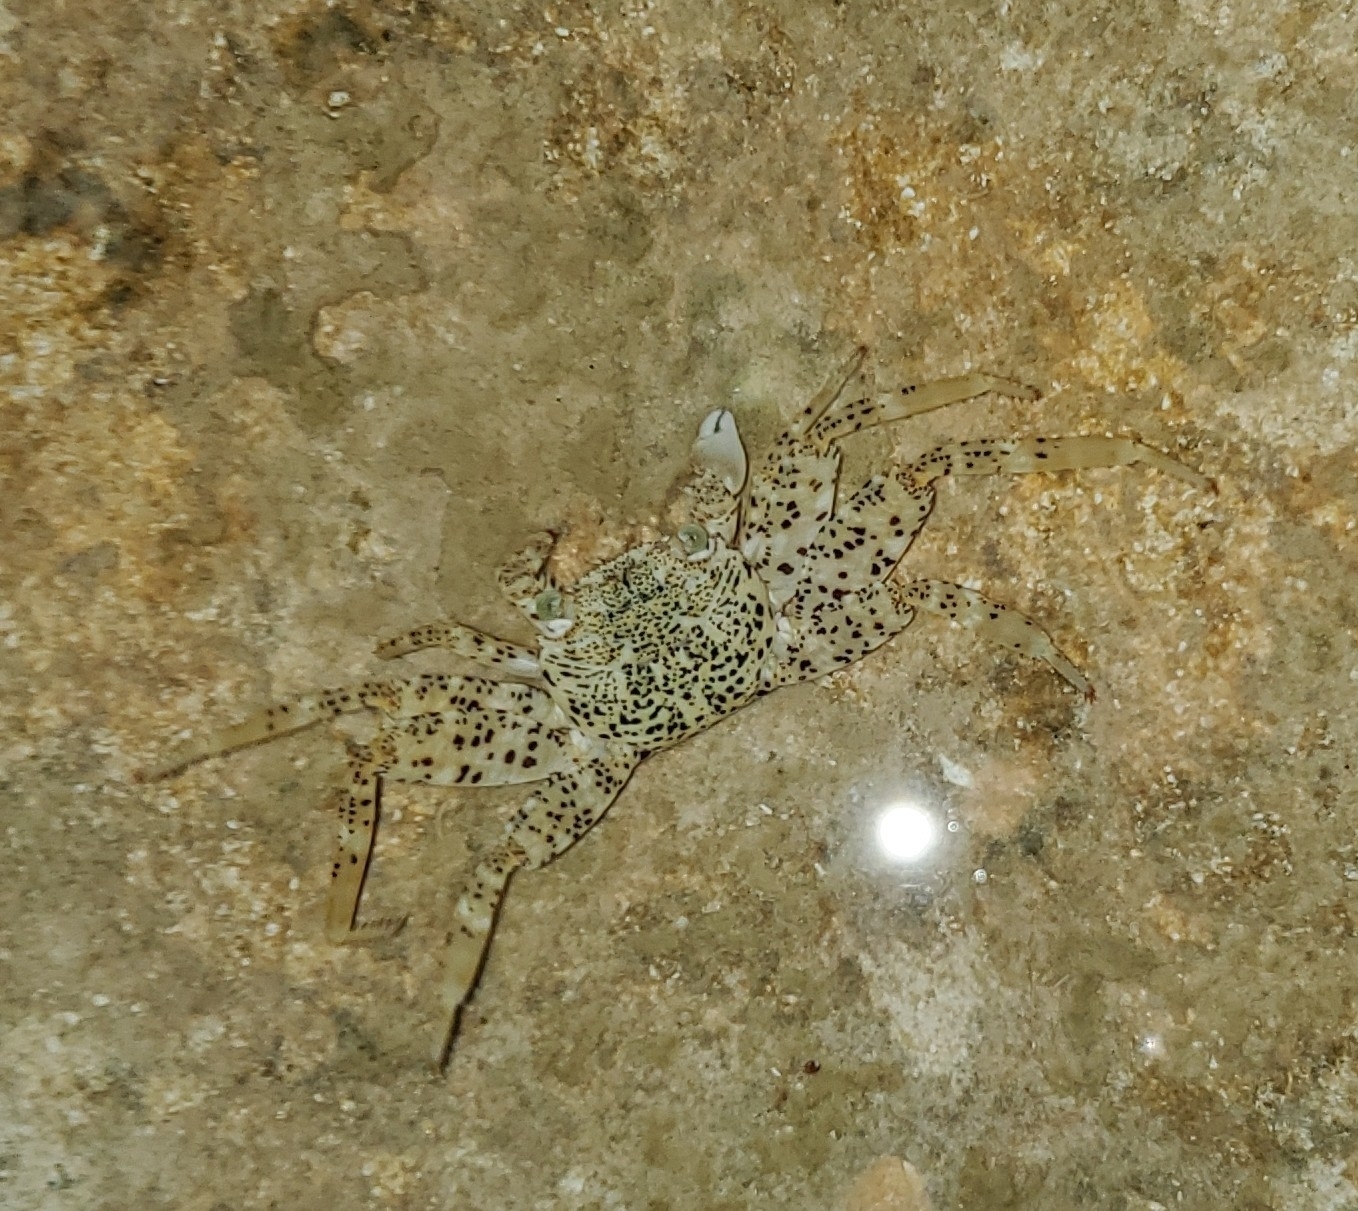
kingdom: Animalia
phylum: Arthropoda
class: Malacostraca
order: Decapoda
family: Grapsidae
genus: Grapsus
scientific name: Grapsus longitarsis
